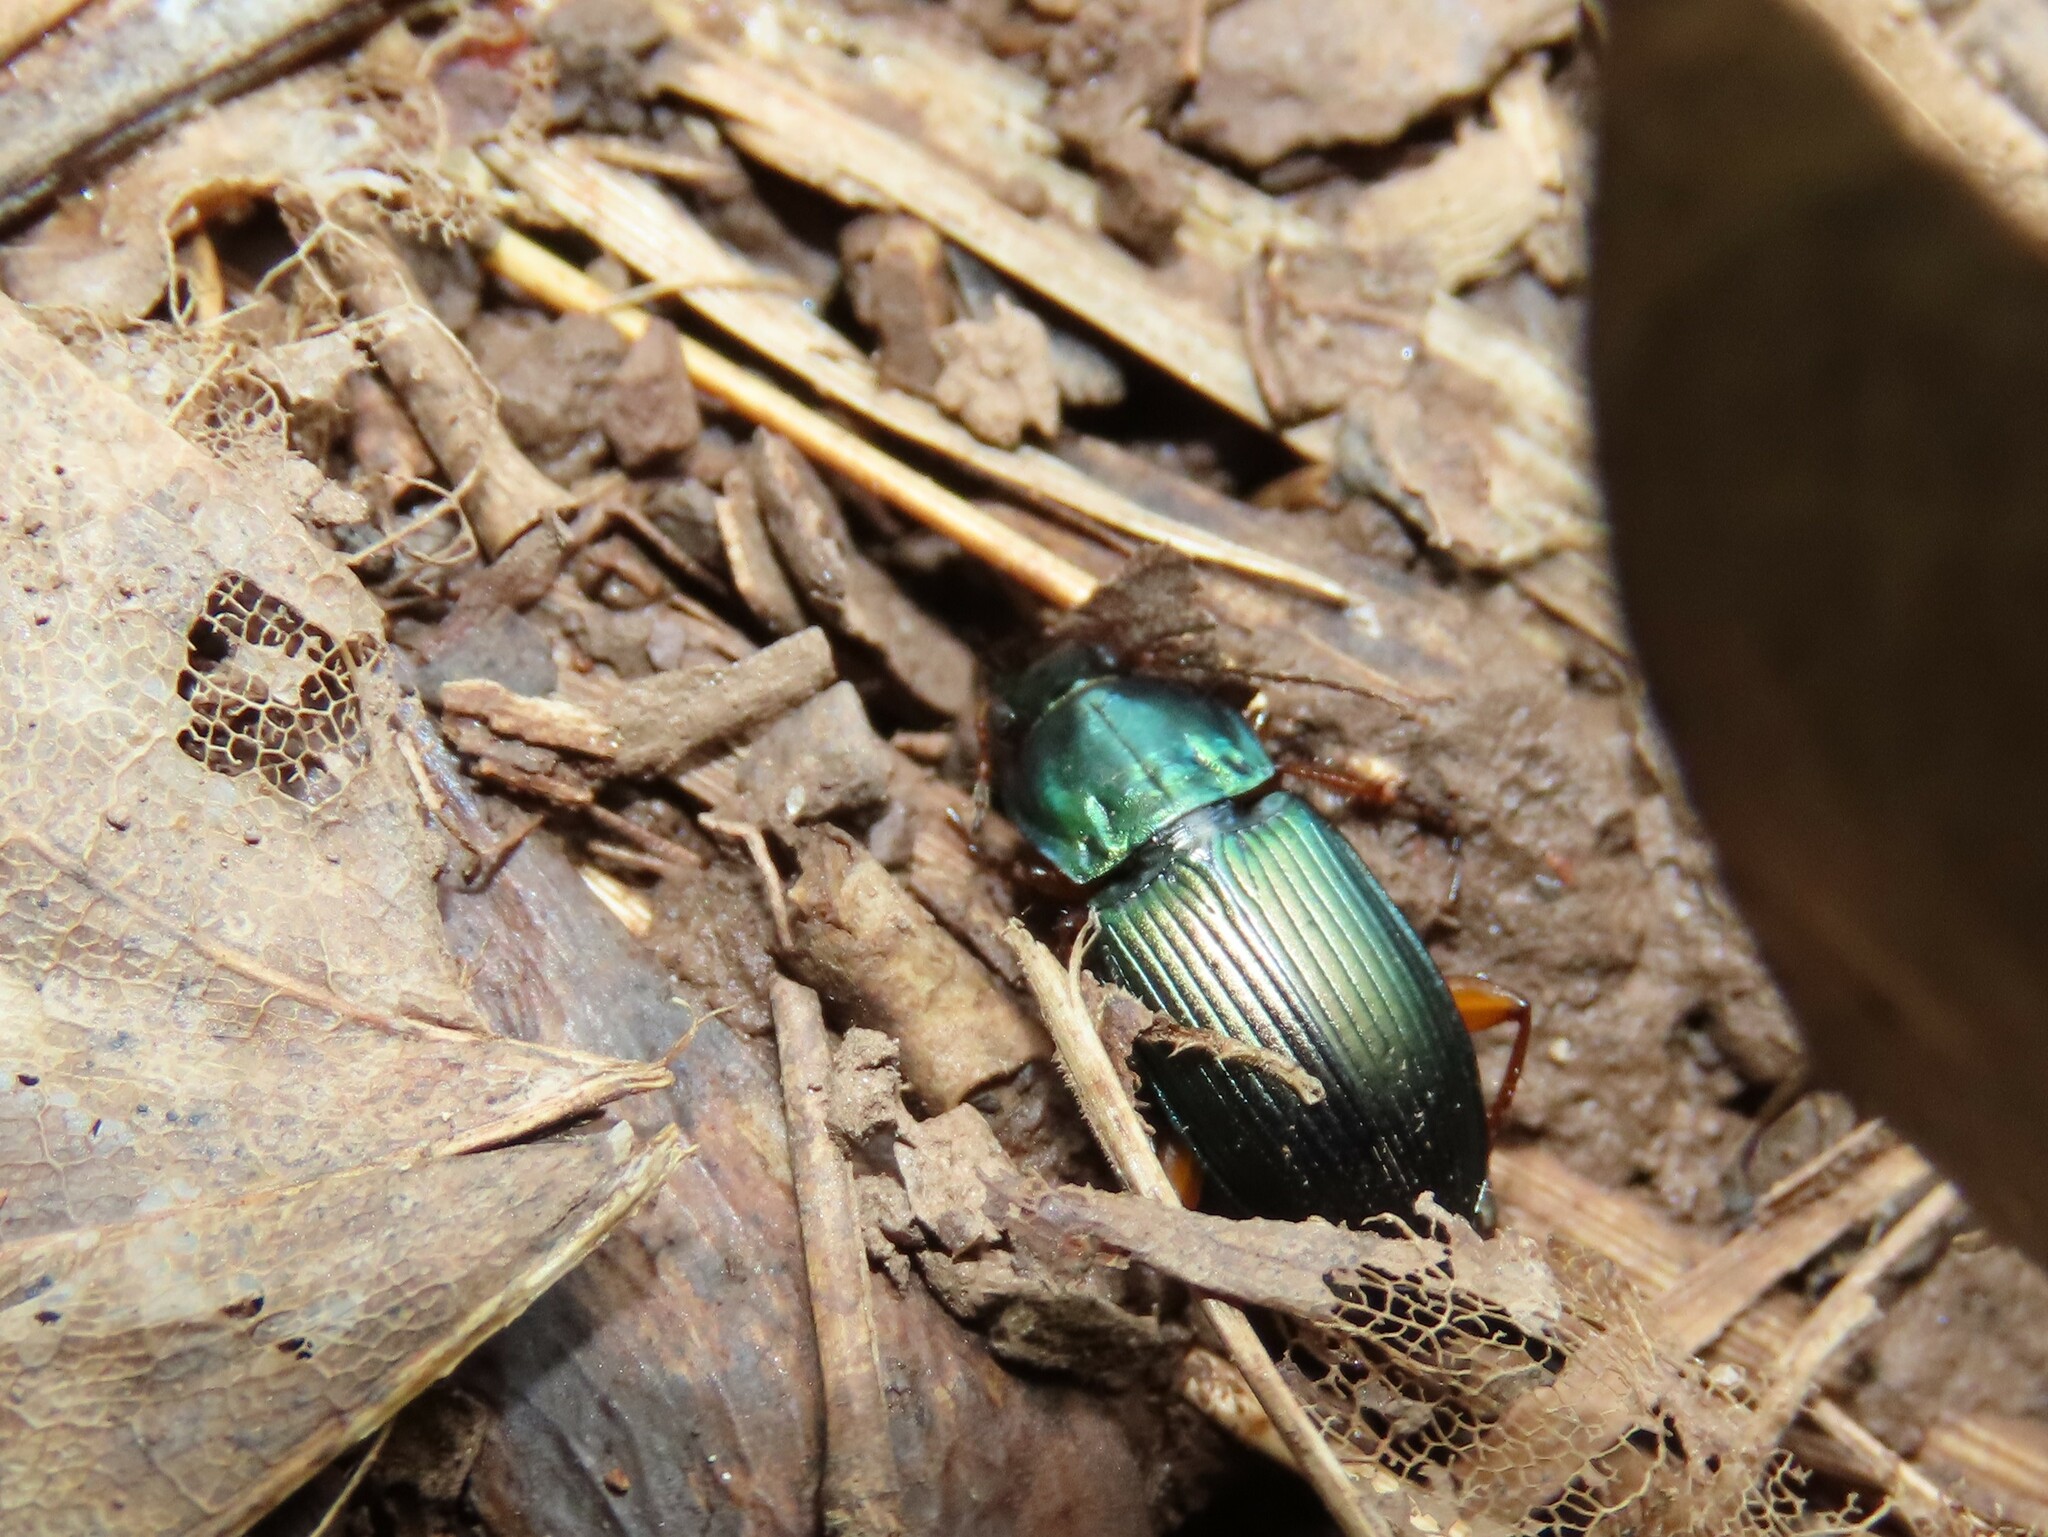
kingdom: Animalia
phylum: Arthropoda
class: Insecta
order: Coleoptera
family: Carabidae
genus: Poecilus
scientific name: Poecilus lucublandus
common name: Woodland ground beetle
